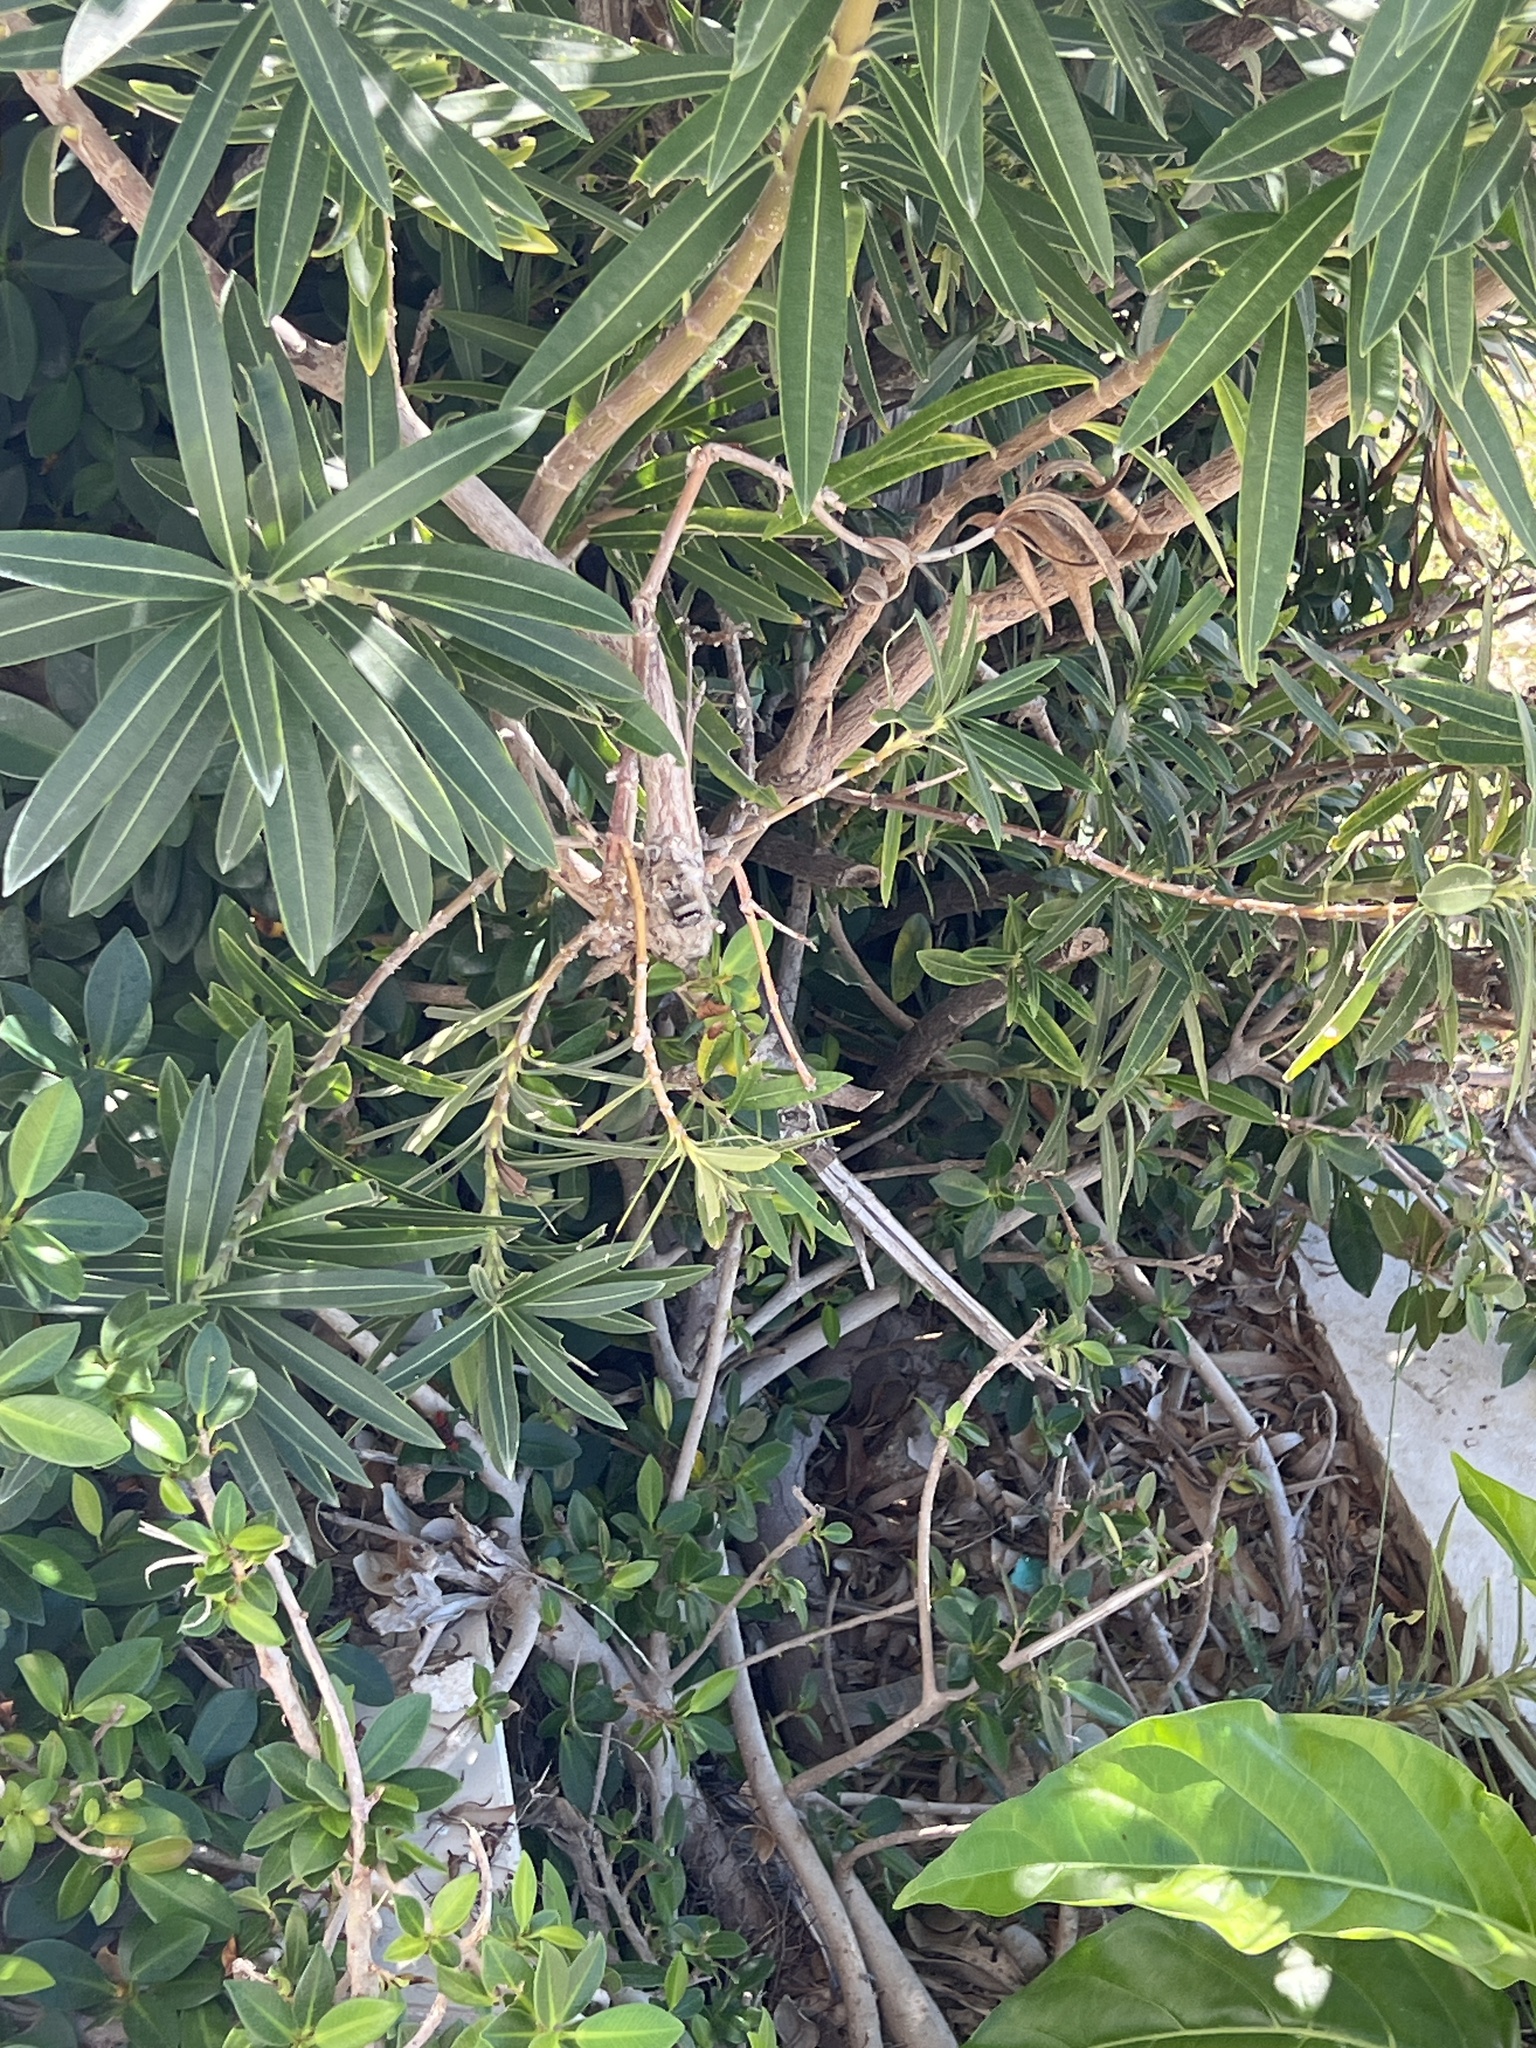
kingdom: Plantae
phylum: Tracheophyta
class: Magnoliopsida
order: Gentianales
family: Apocynaceae
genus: Nerium
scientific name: Nerium oleander
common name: Oleander
